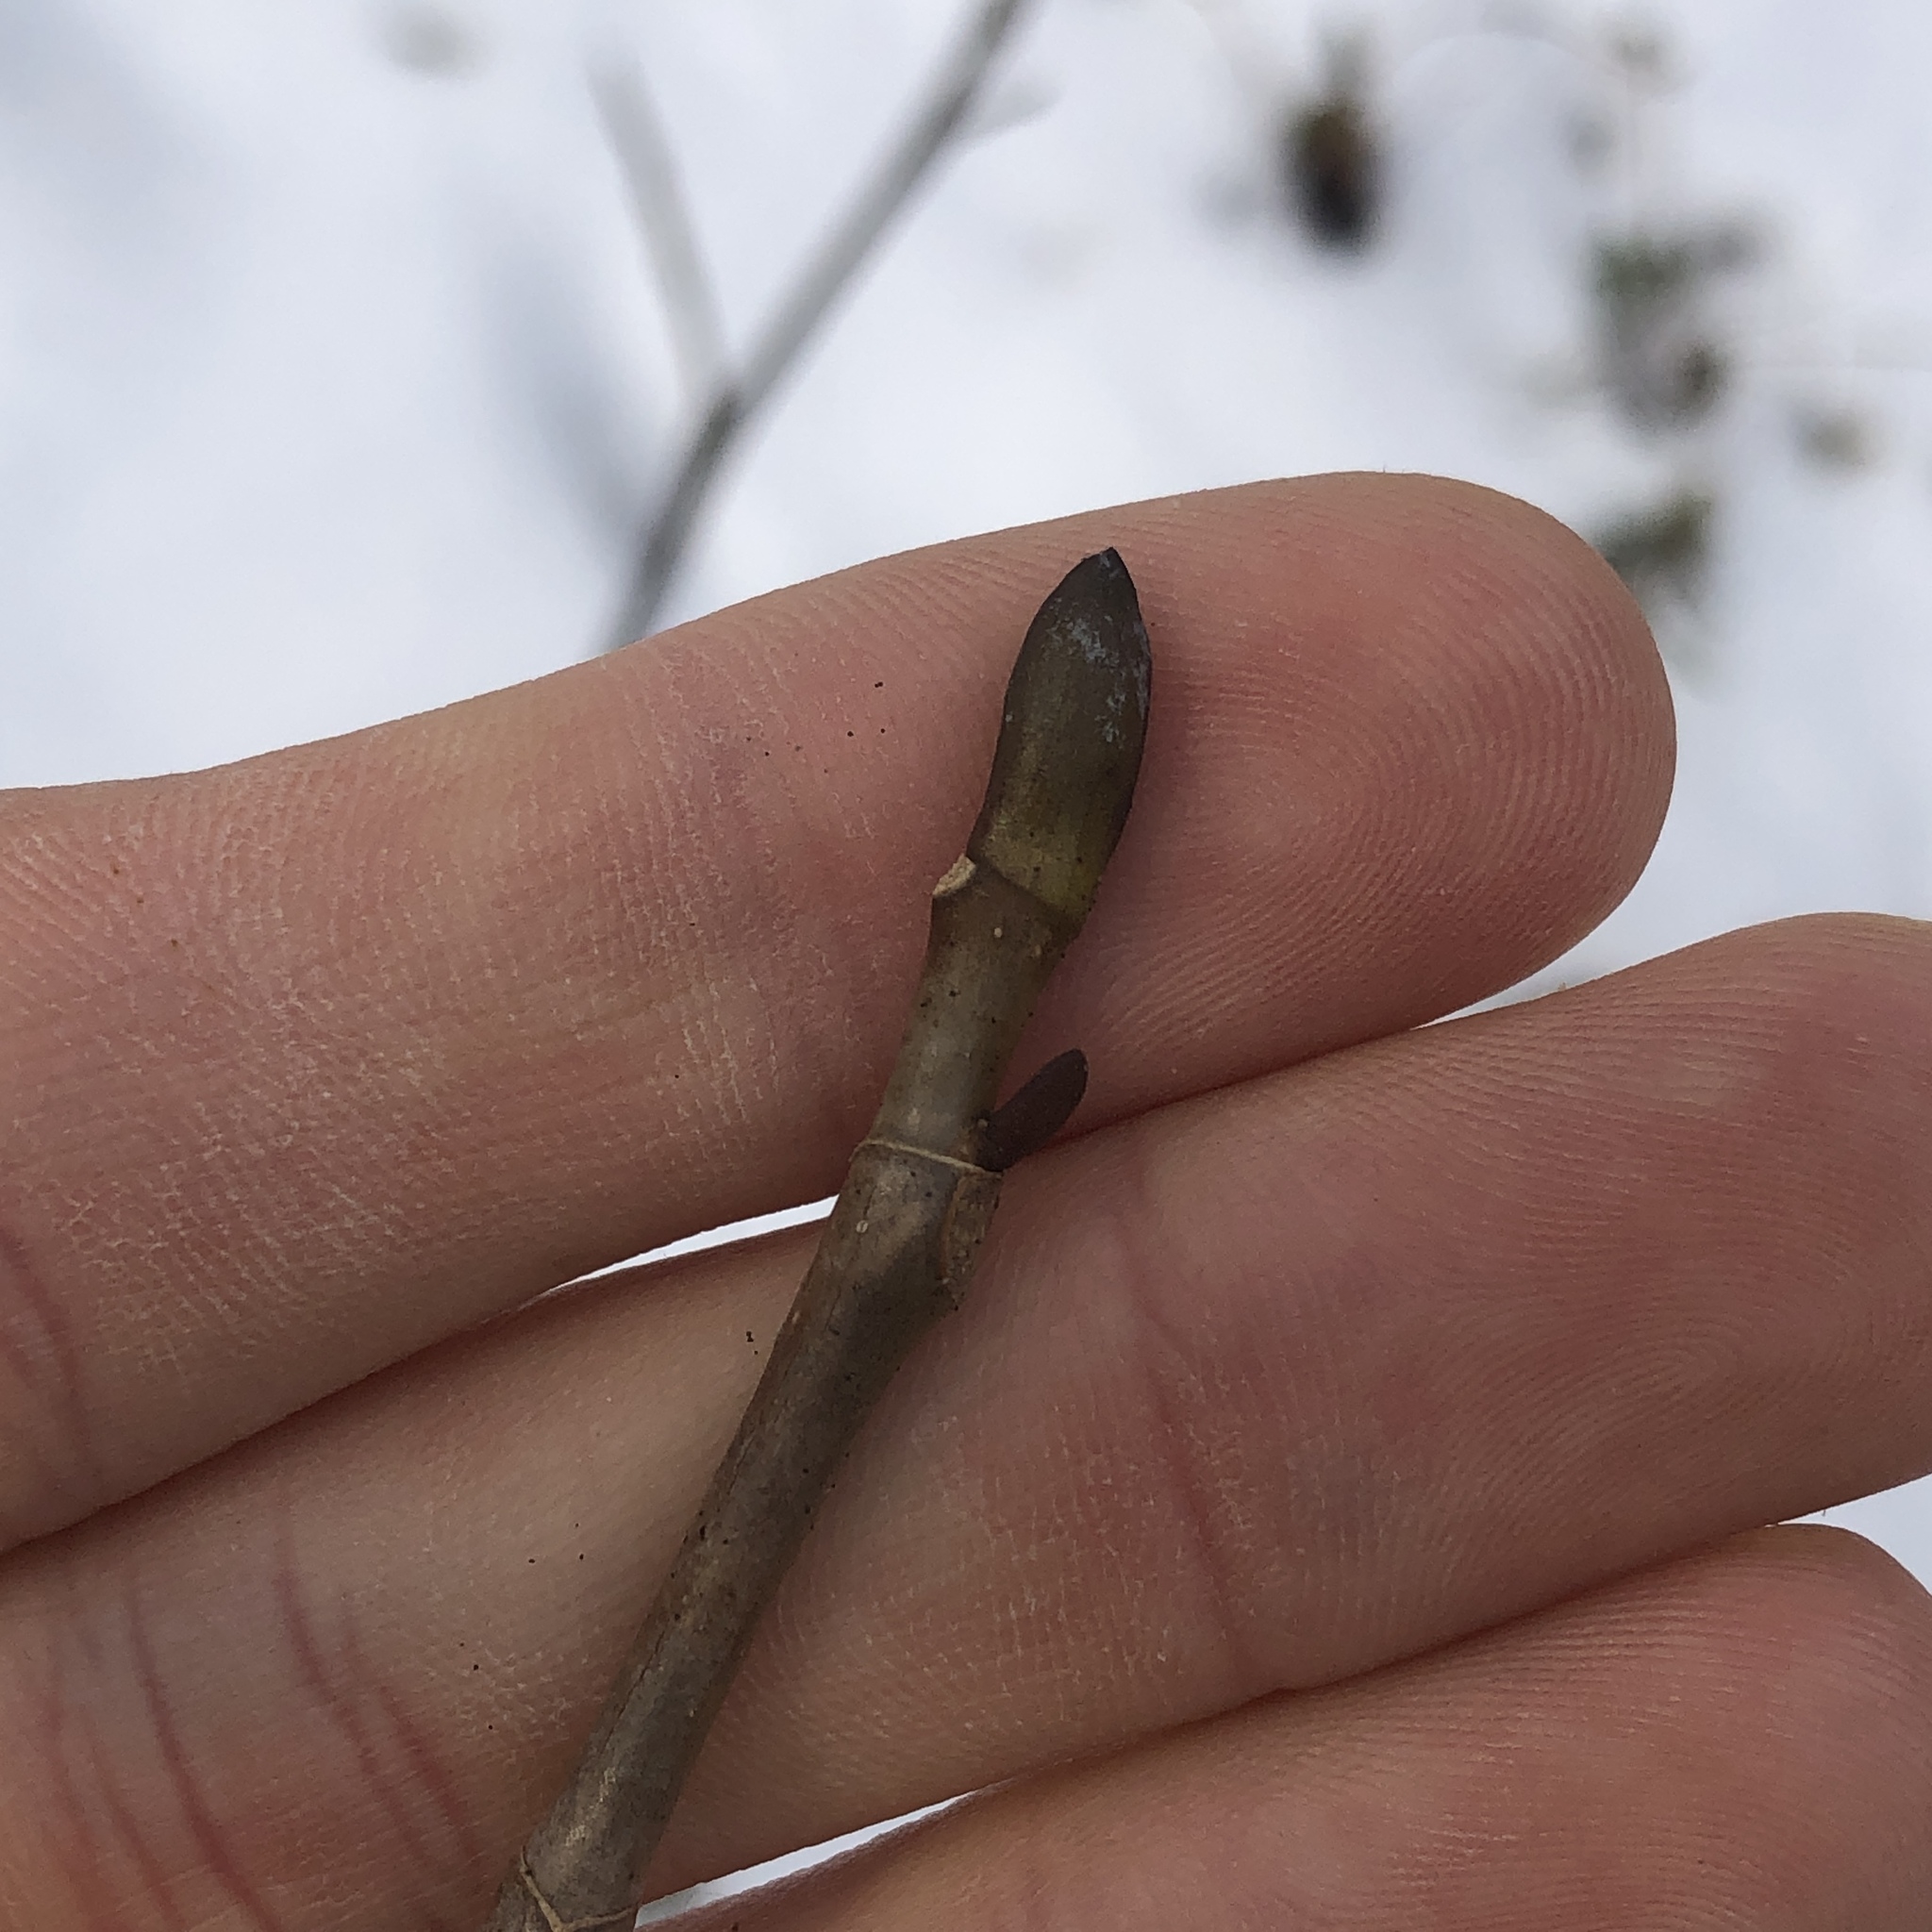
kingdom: Plantae
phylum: Tracheophyta
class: Magnoliopsida
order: Magnoliales
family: Magnoliaceae
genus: Liriodendron
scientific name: Liriodendron tulipifera
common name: Tulip tree
